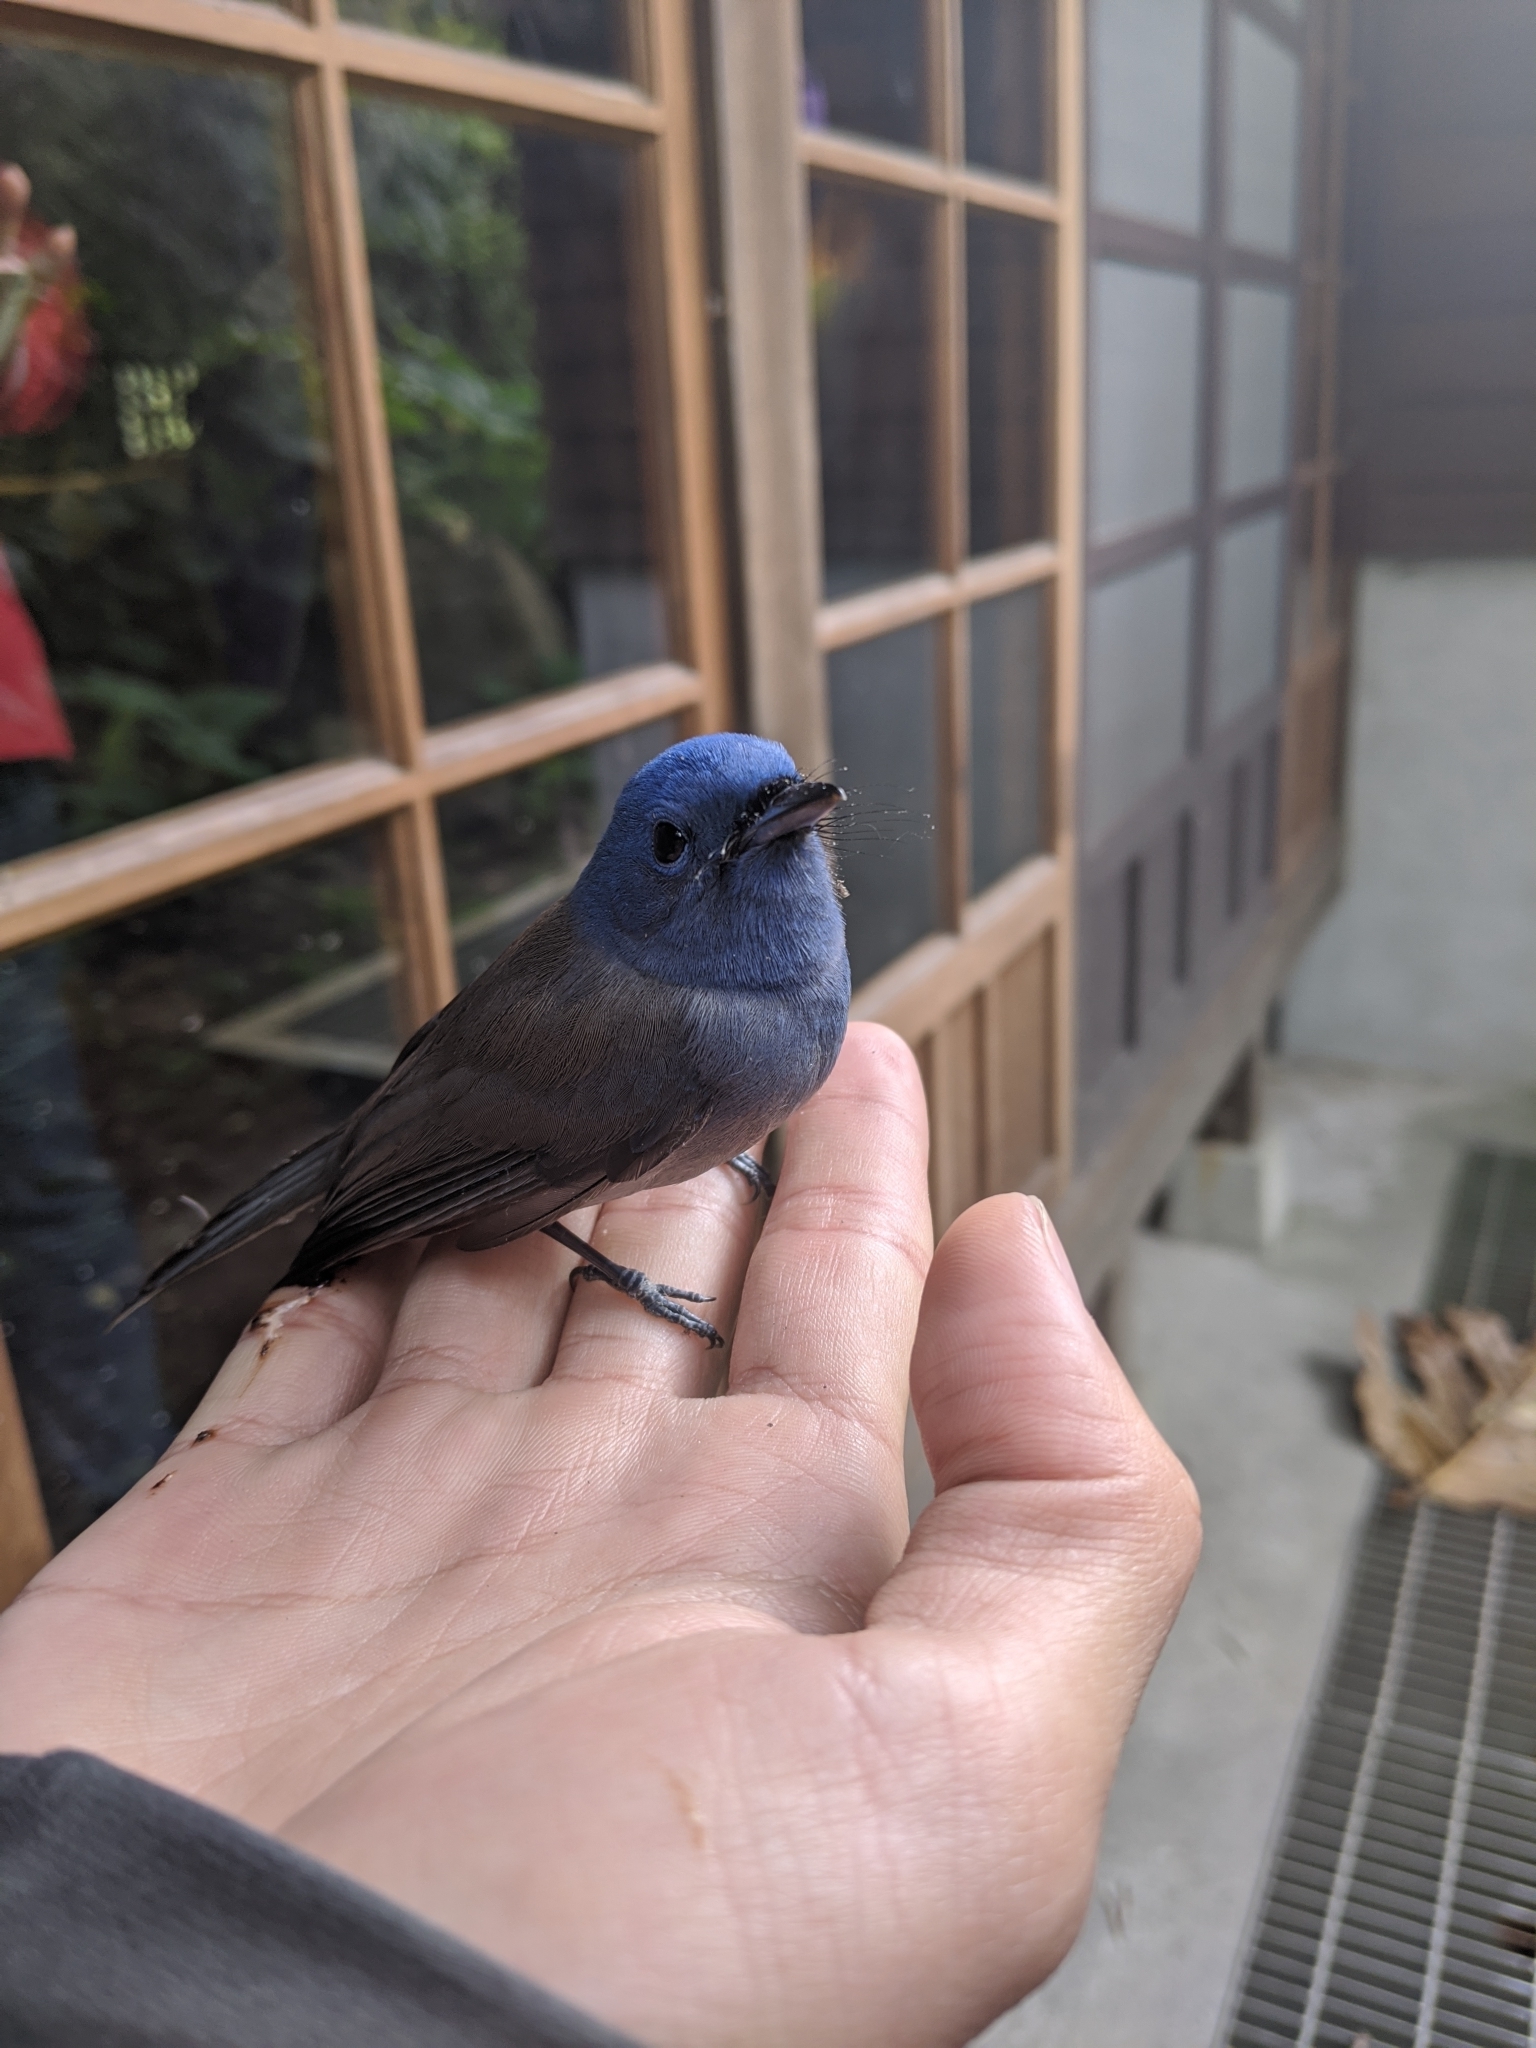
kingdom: Animalia
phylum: Chordata
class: Aves
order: Passeriformes
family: Monarchidae
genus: Hypothymis
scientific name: Hypothymis azurea
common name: Black-naped monarch
